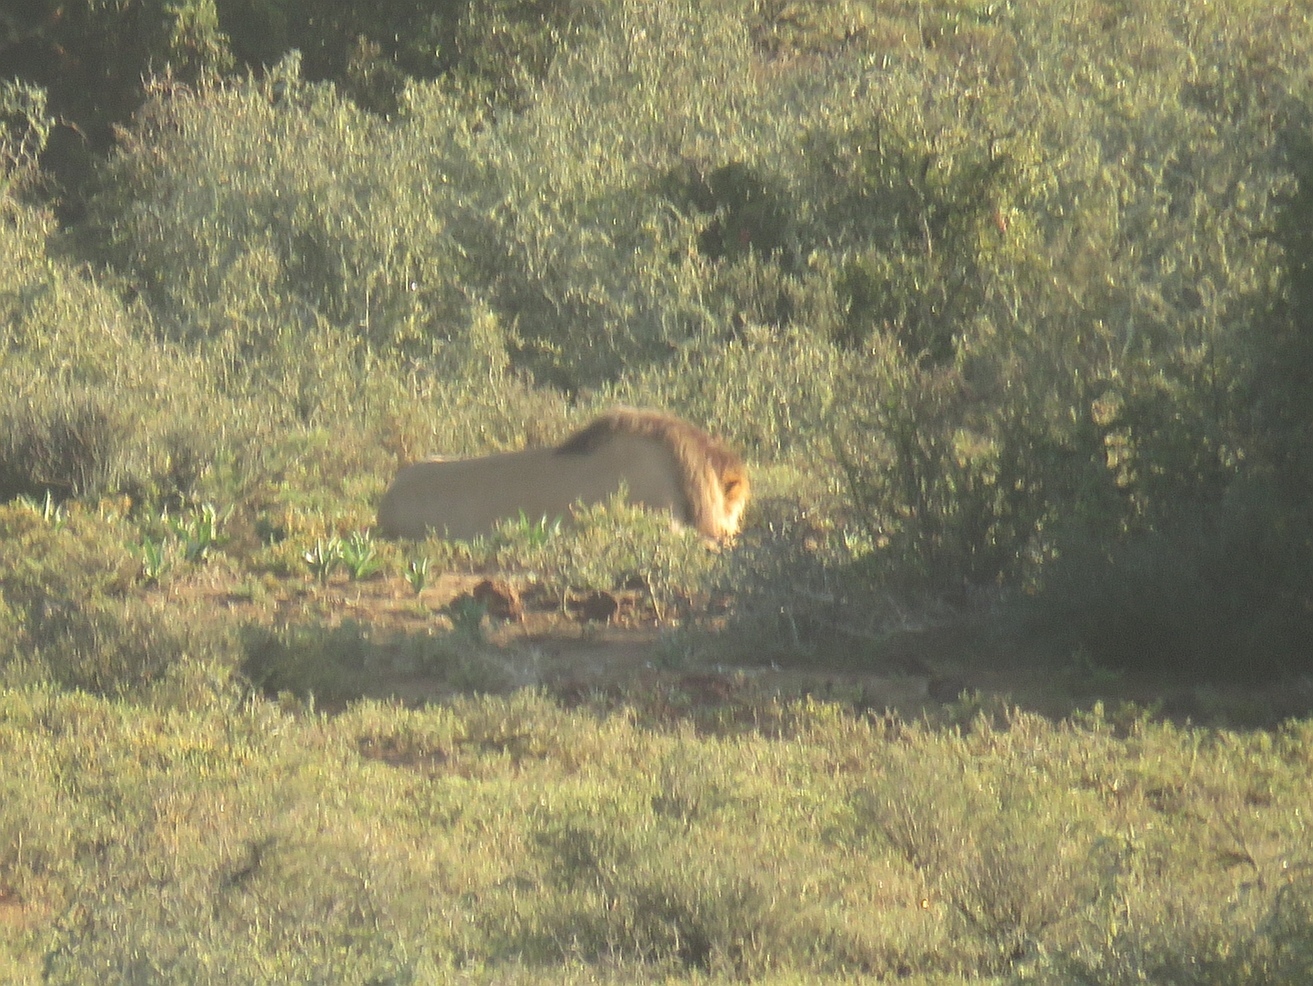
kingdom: Animalia
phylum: Chordata
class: Mammalia
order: Carnivora
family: Felidae
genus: Panthera
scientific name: Panthera leo
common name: Lion
